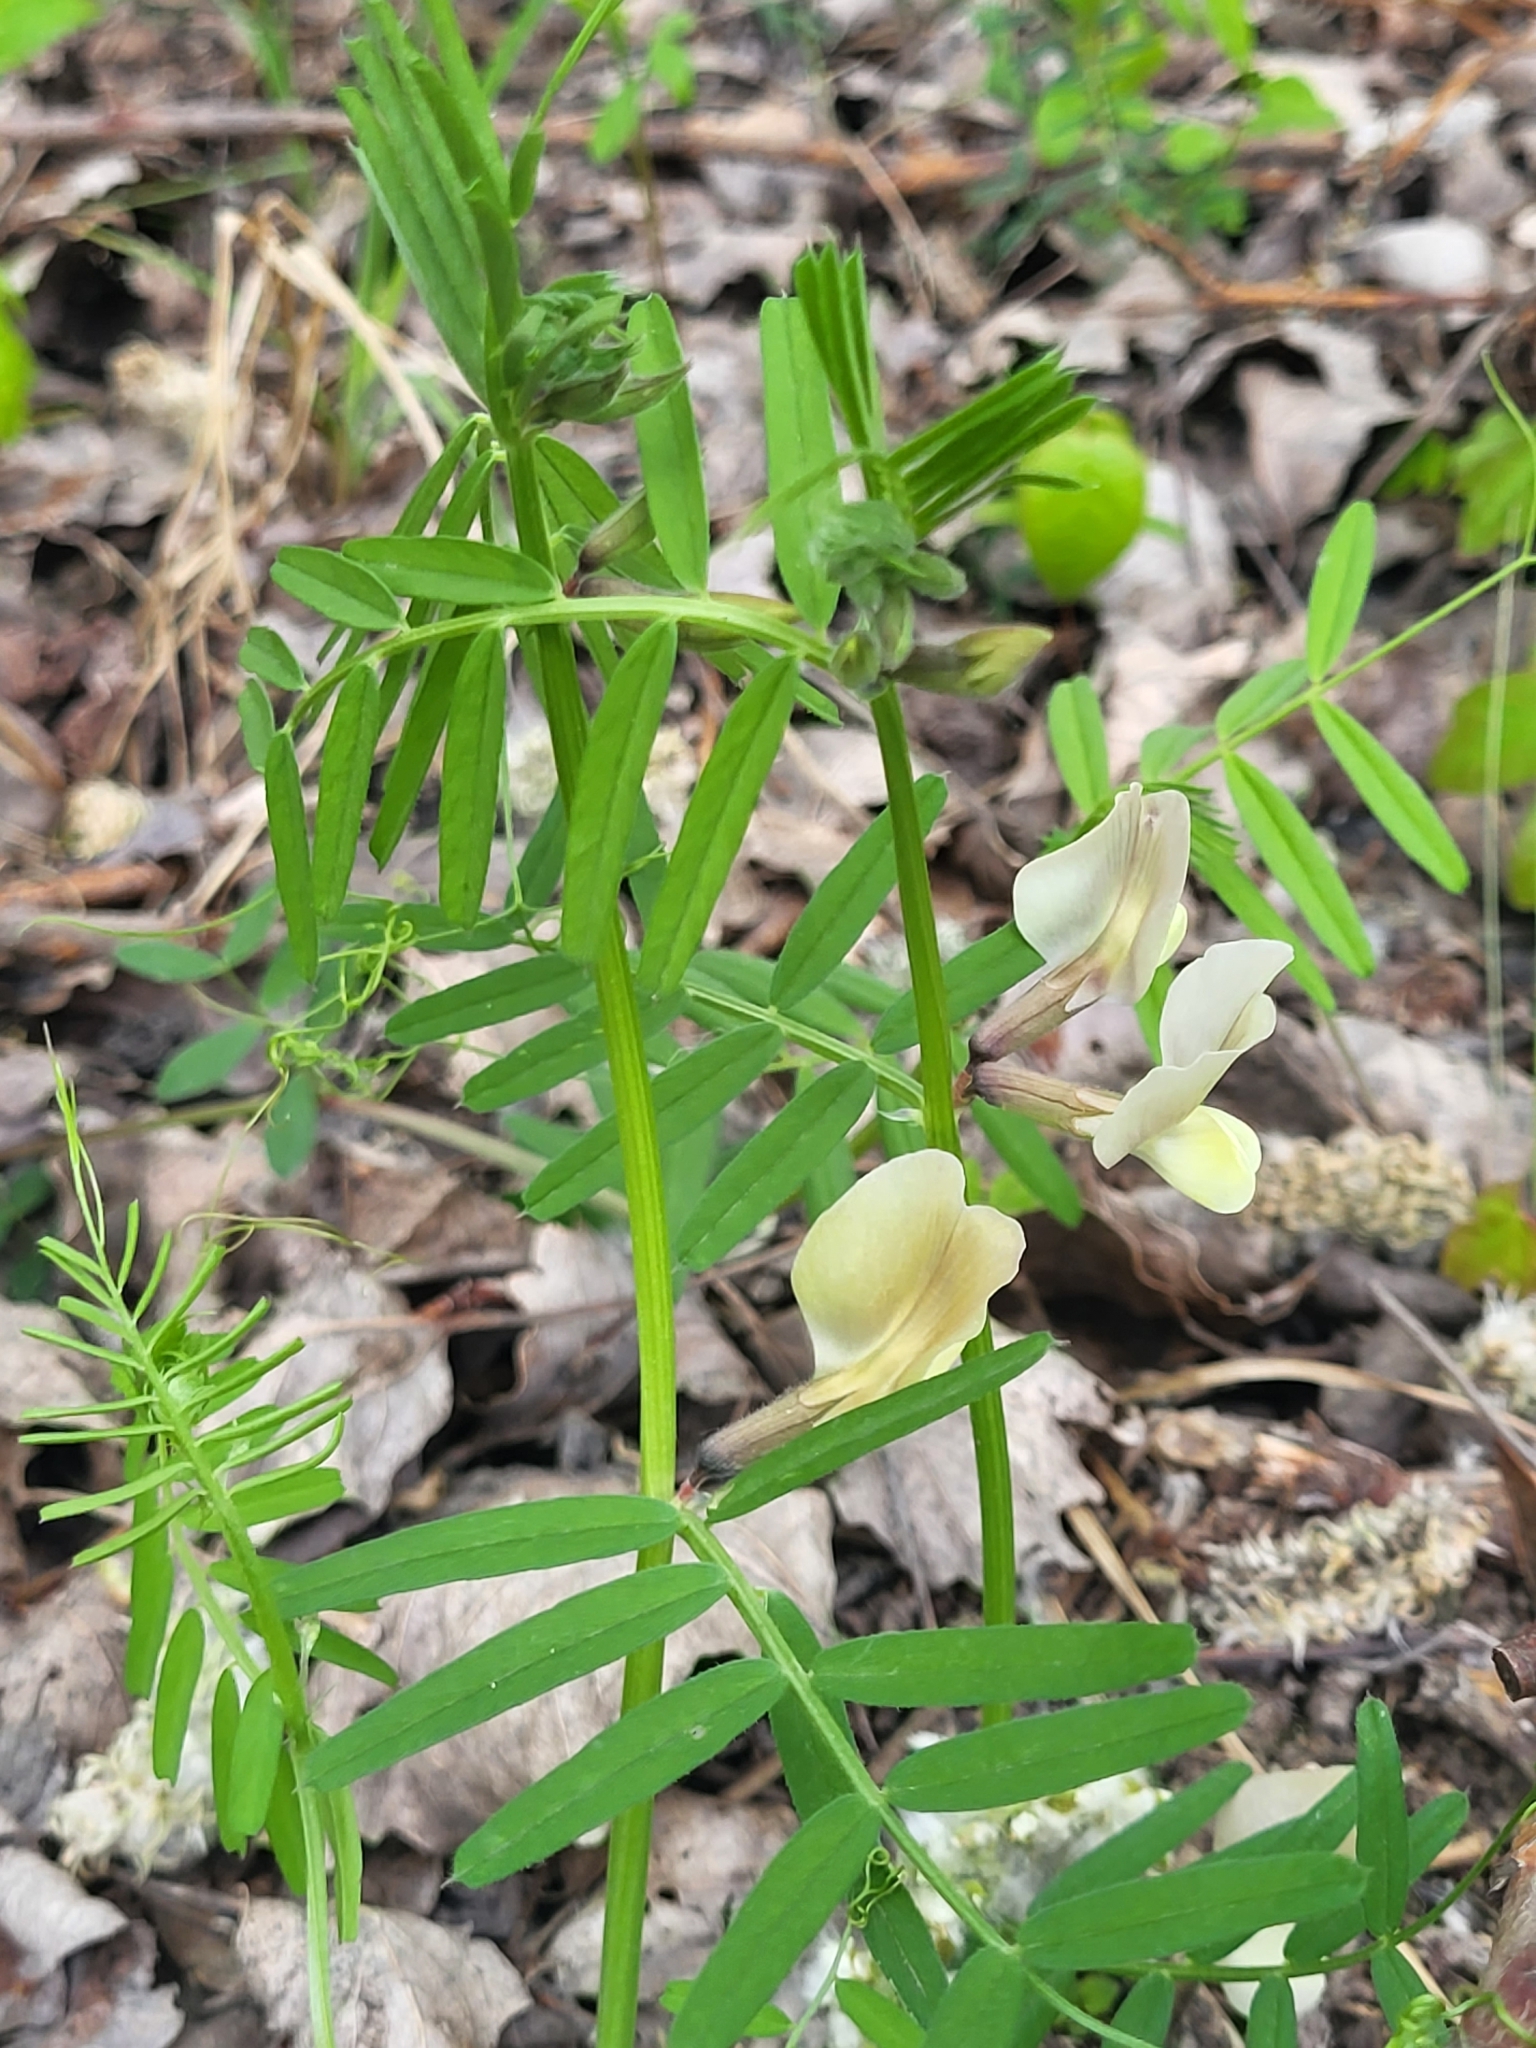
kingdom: Plantae
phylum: Tracheophyta
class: Magnoliopsida
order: Fabales
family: Fabaceae
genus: Vicia
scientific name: Vicia grandiflora
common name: Large yellow vetch
